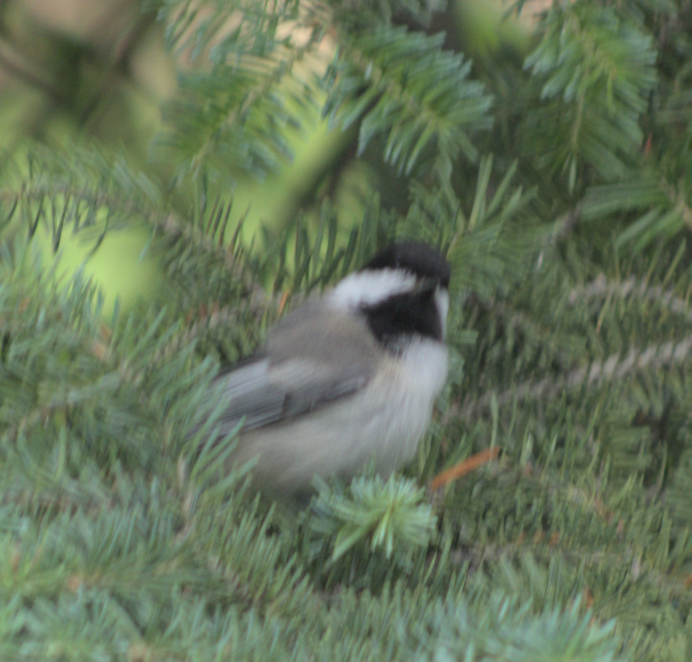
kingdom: Animalia
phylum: Chordata
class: Aves
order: Passeriformes
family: Paridae
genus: Poecile
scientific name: Poecile atricapillus
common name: Black-capped chickadee
